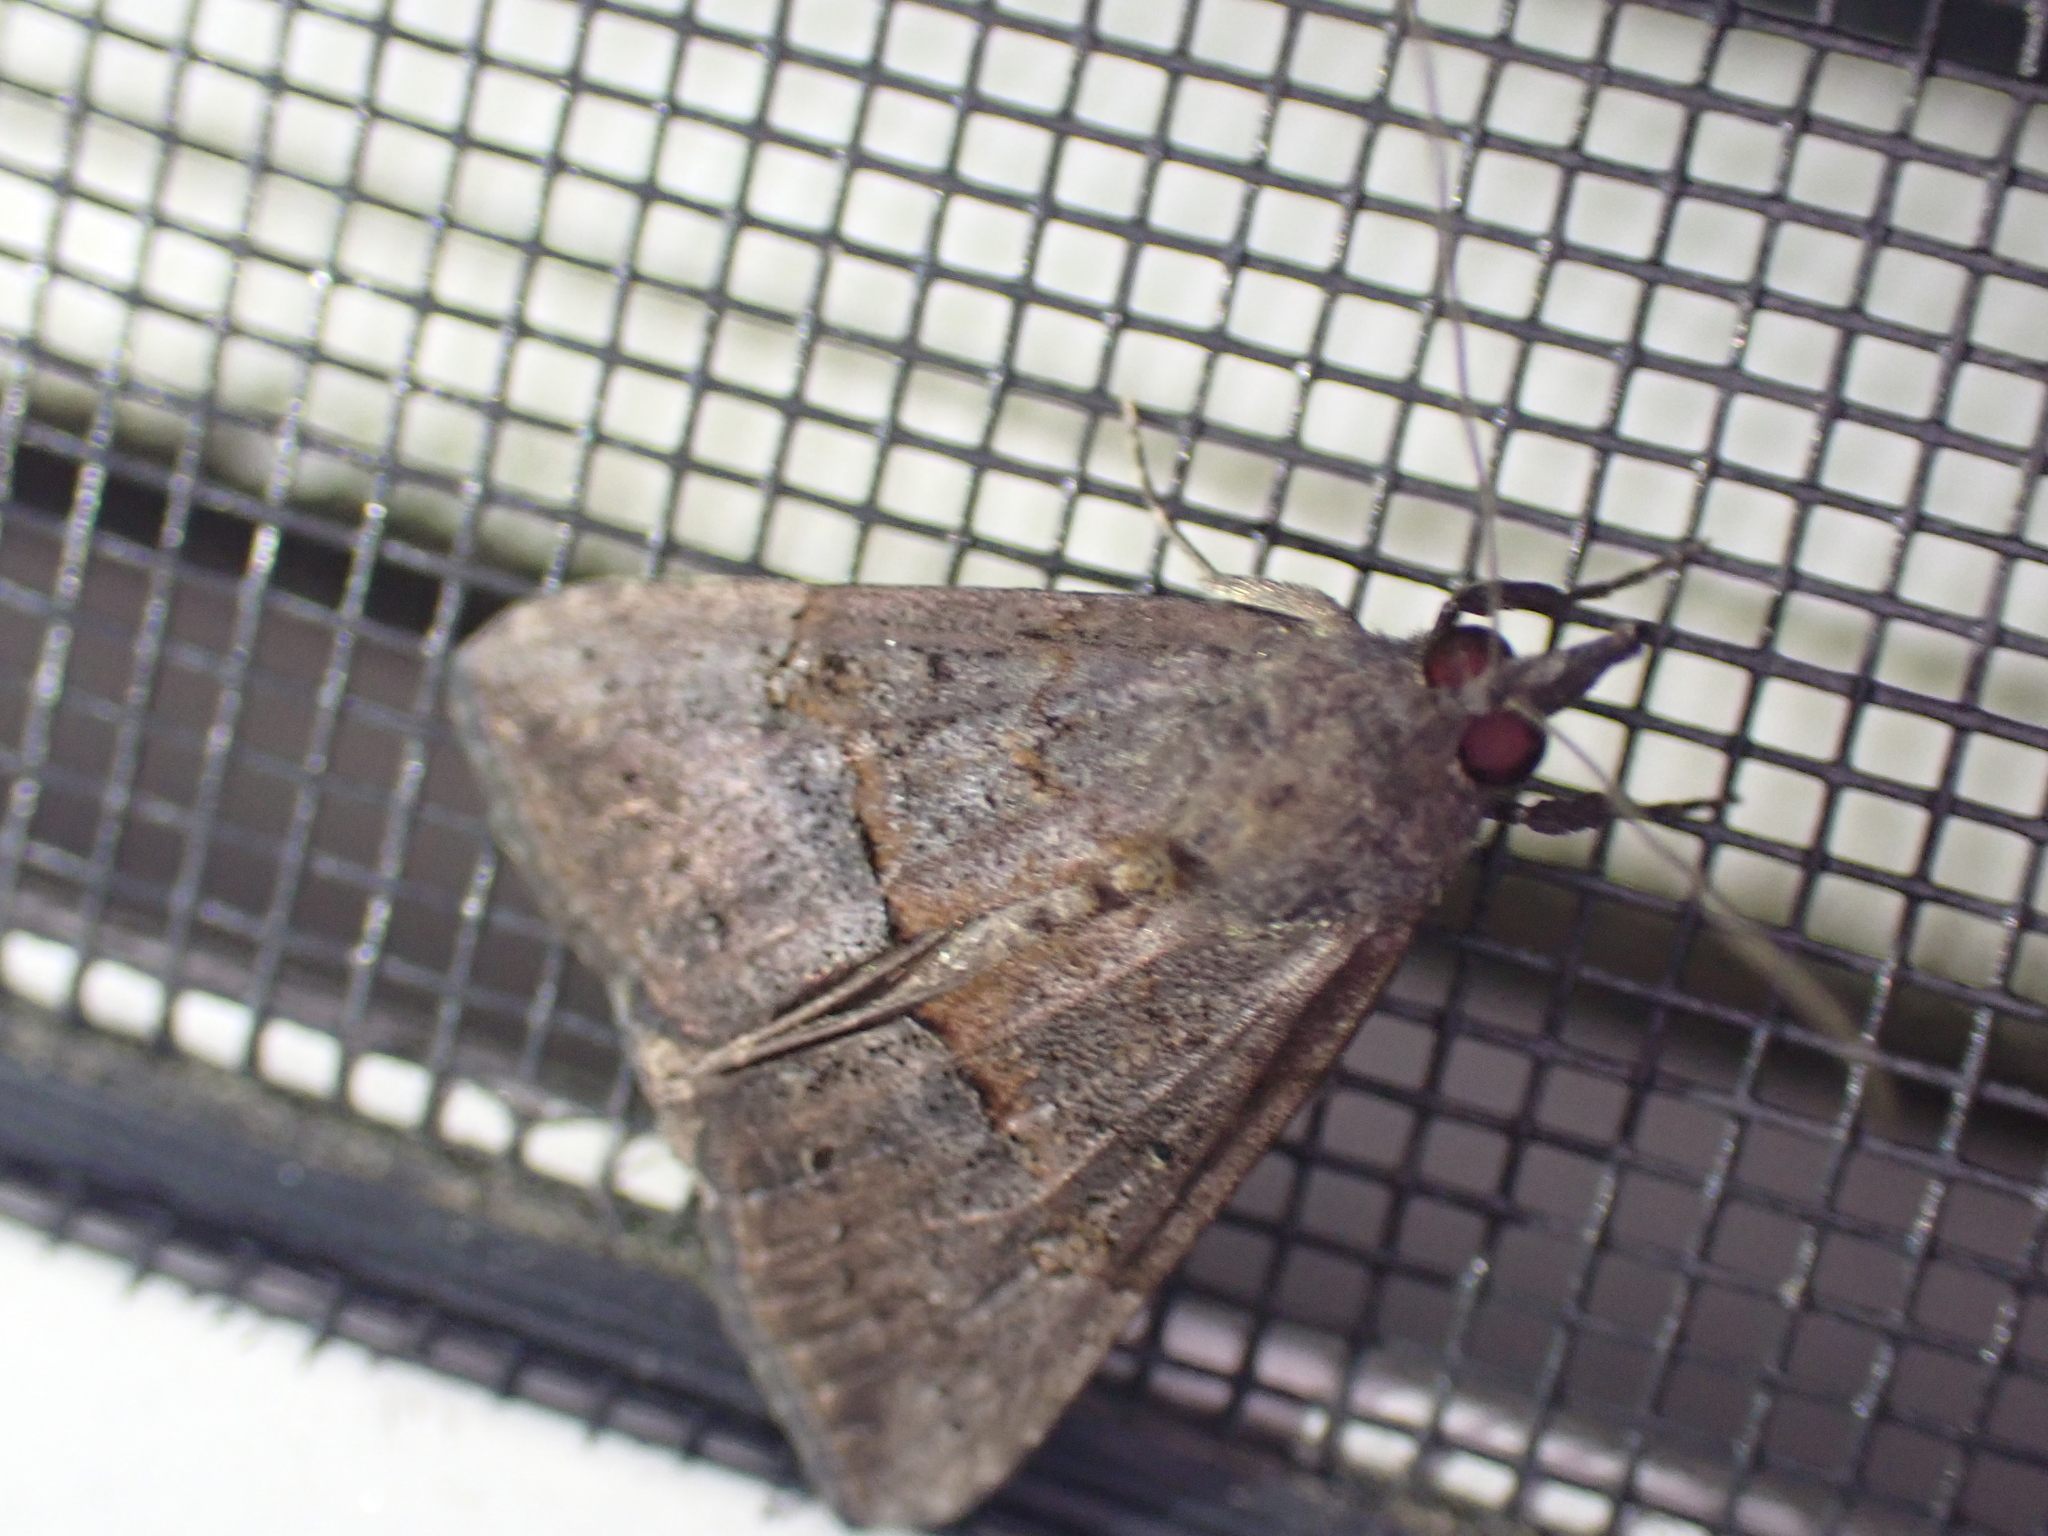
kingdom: Animalia
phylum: Arthropoda
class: Insecta
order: Lepidoptera
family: Erebidae
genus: Hypena
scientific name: Hypena scabra
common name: Green cloverworm
